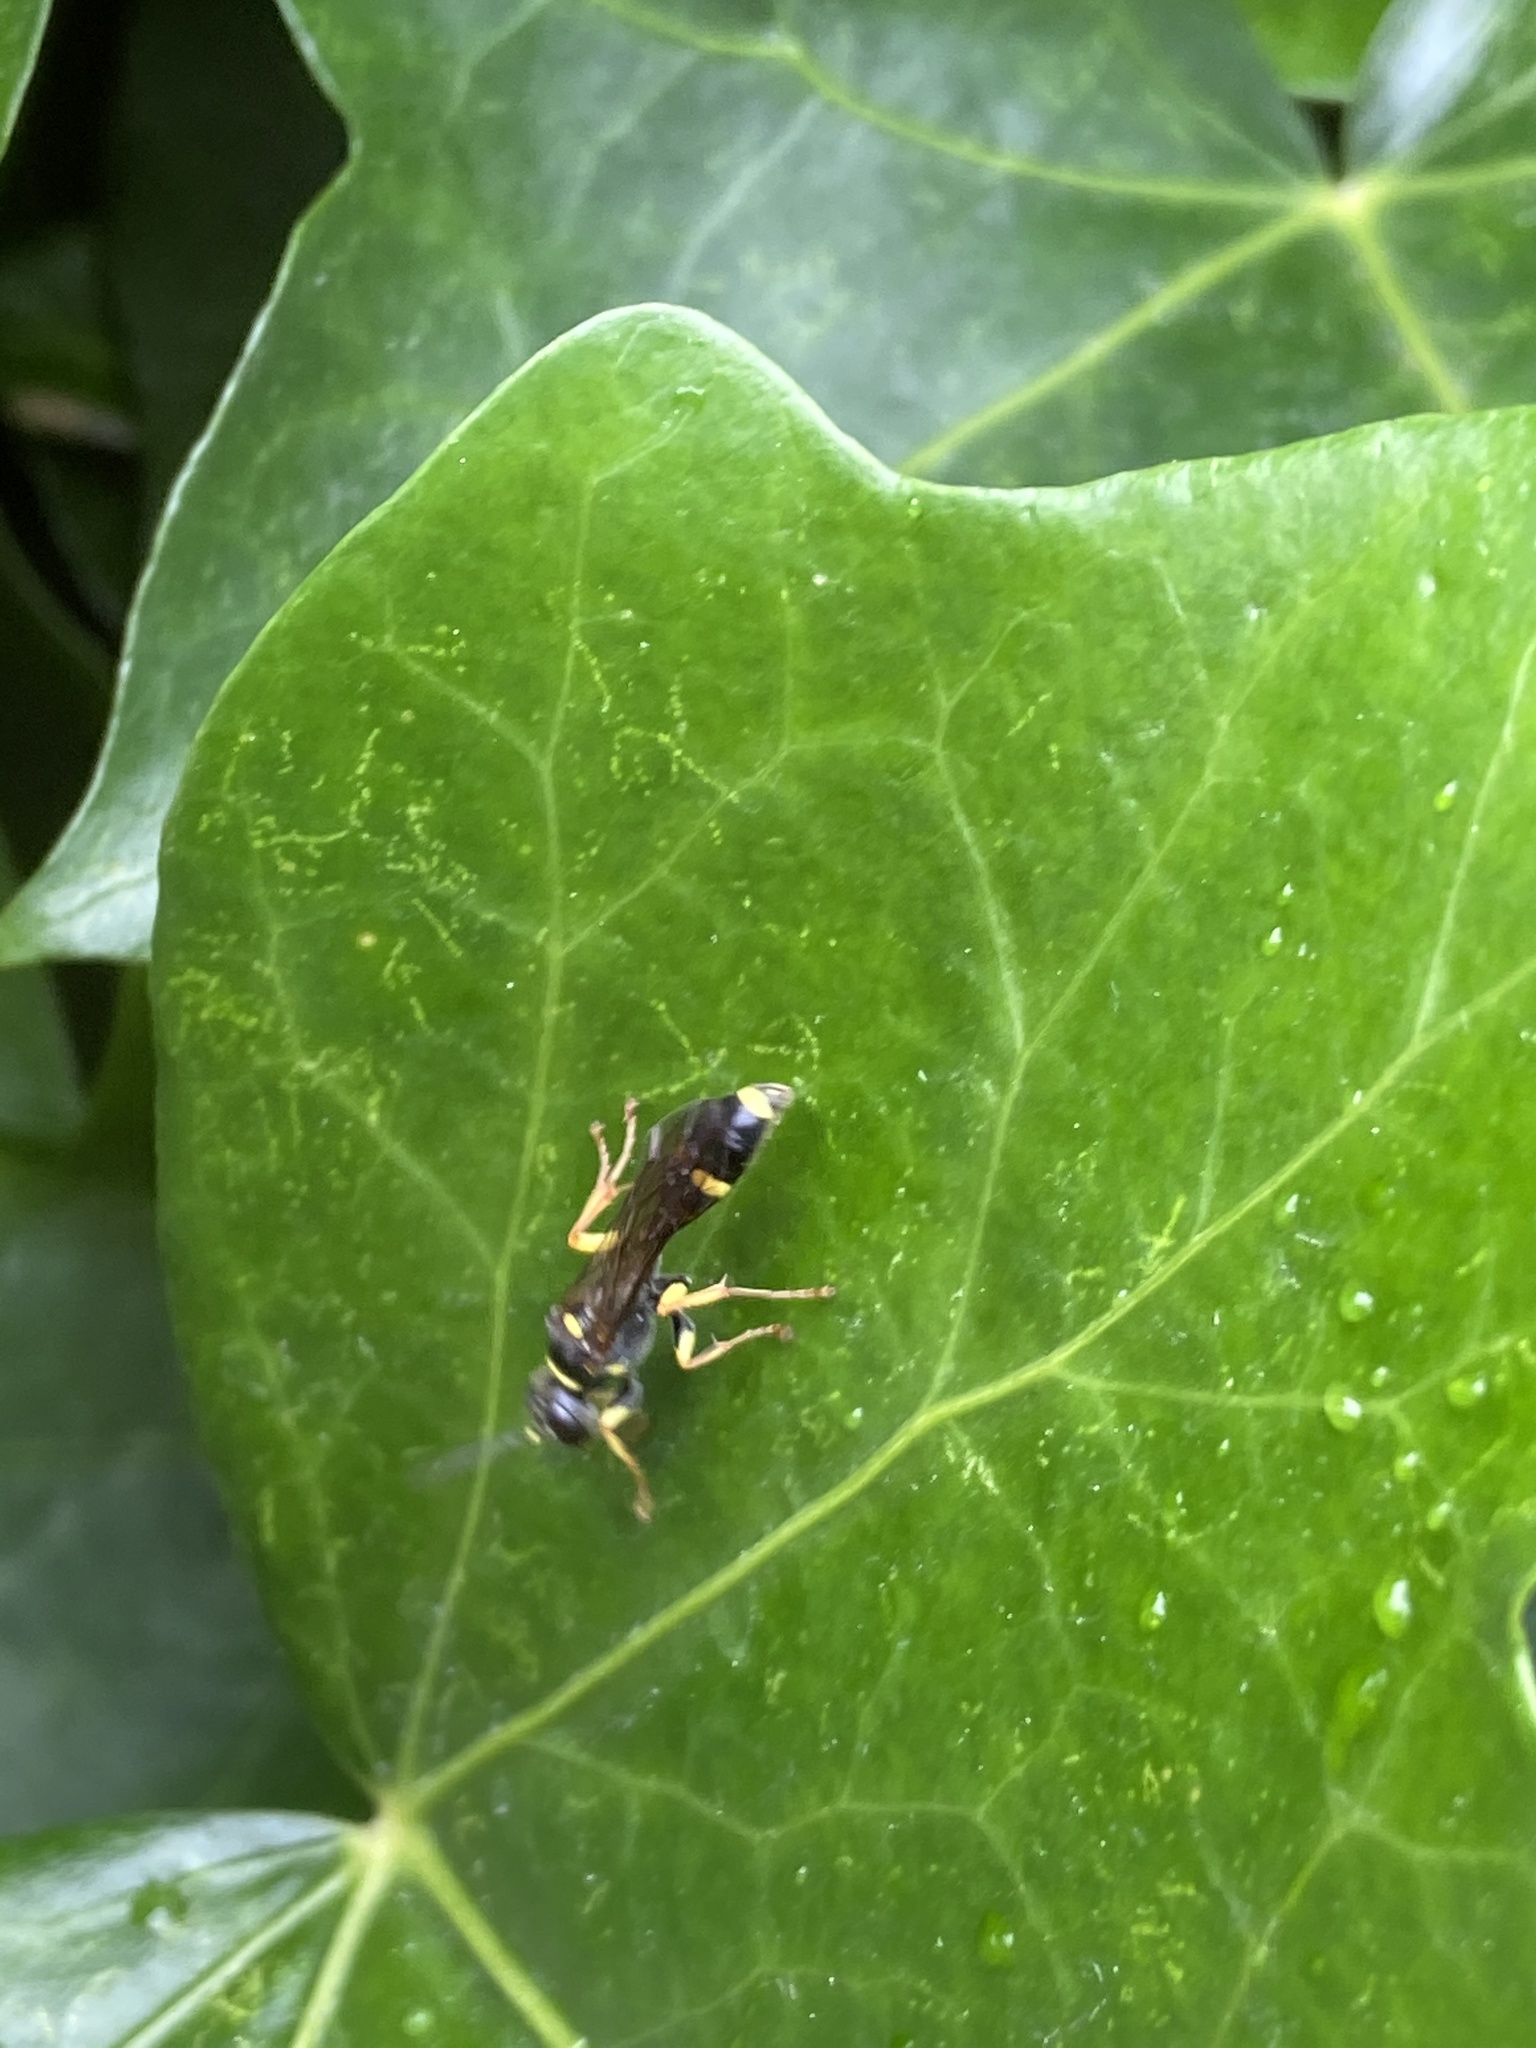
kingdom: Animalia
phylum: Arthropoda
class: Insecta
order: Hymenoptera
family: Crabronidae
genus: Mellinus
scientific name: Mellinus arvensis
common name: Field digger wasp
